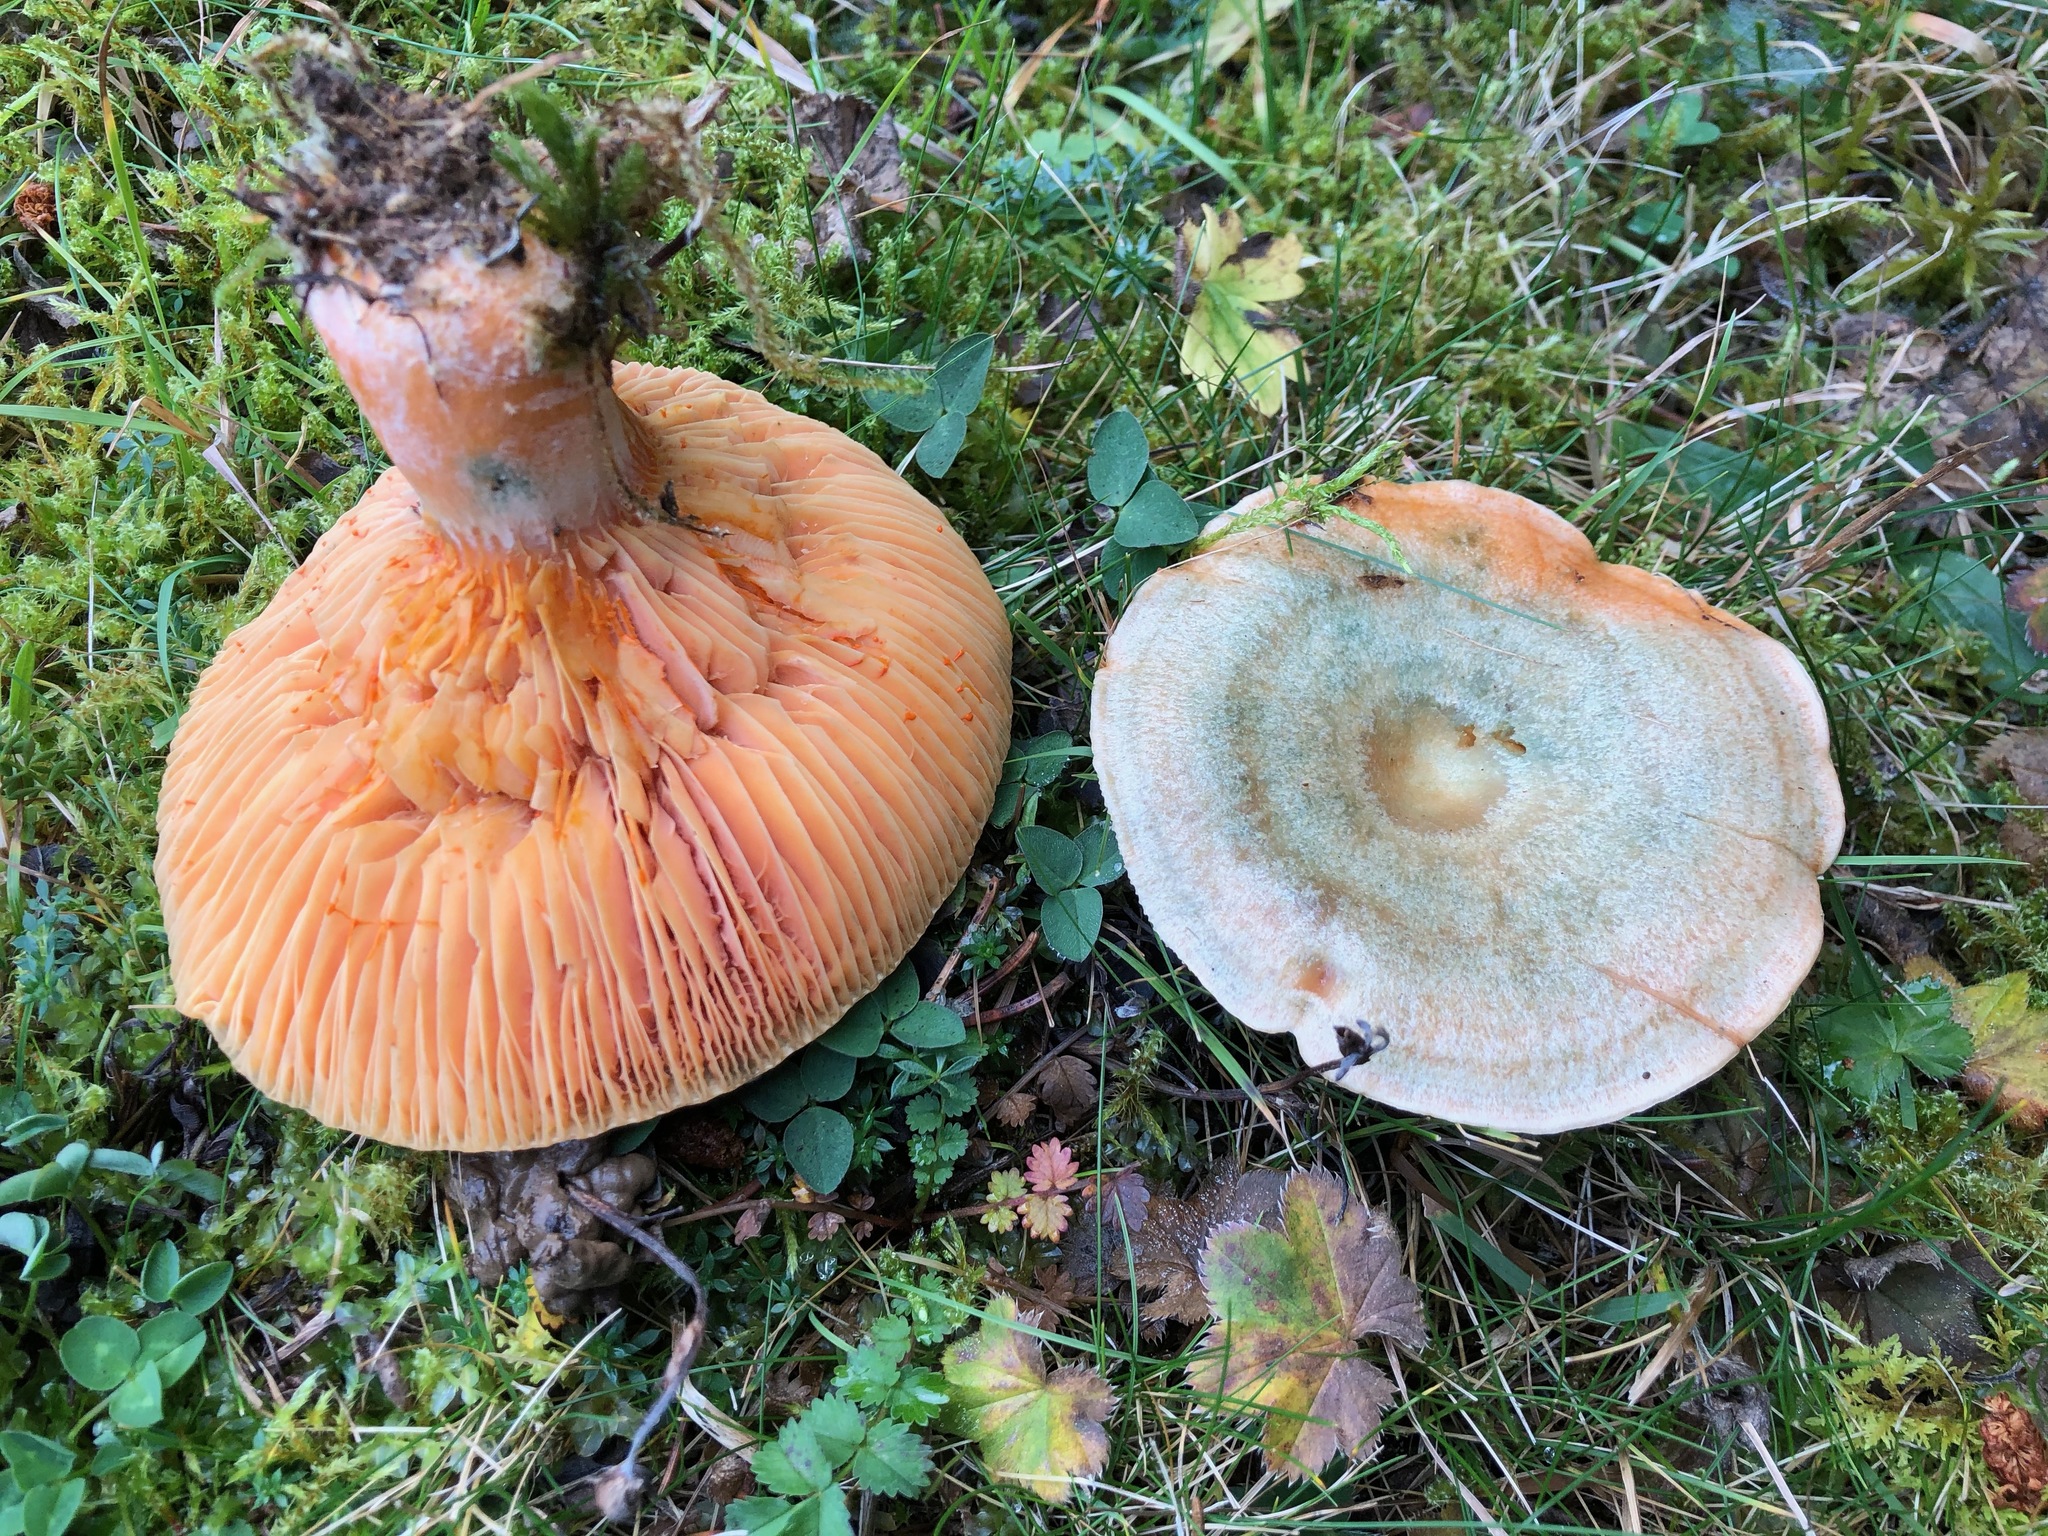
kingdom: Fungi
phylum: Basidiomycota
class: Agaricomycetes
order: Russulales
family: Russulaceae
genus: Lactarius
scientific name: Lactarius deterrimus
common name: False saffron milkcap
